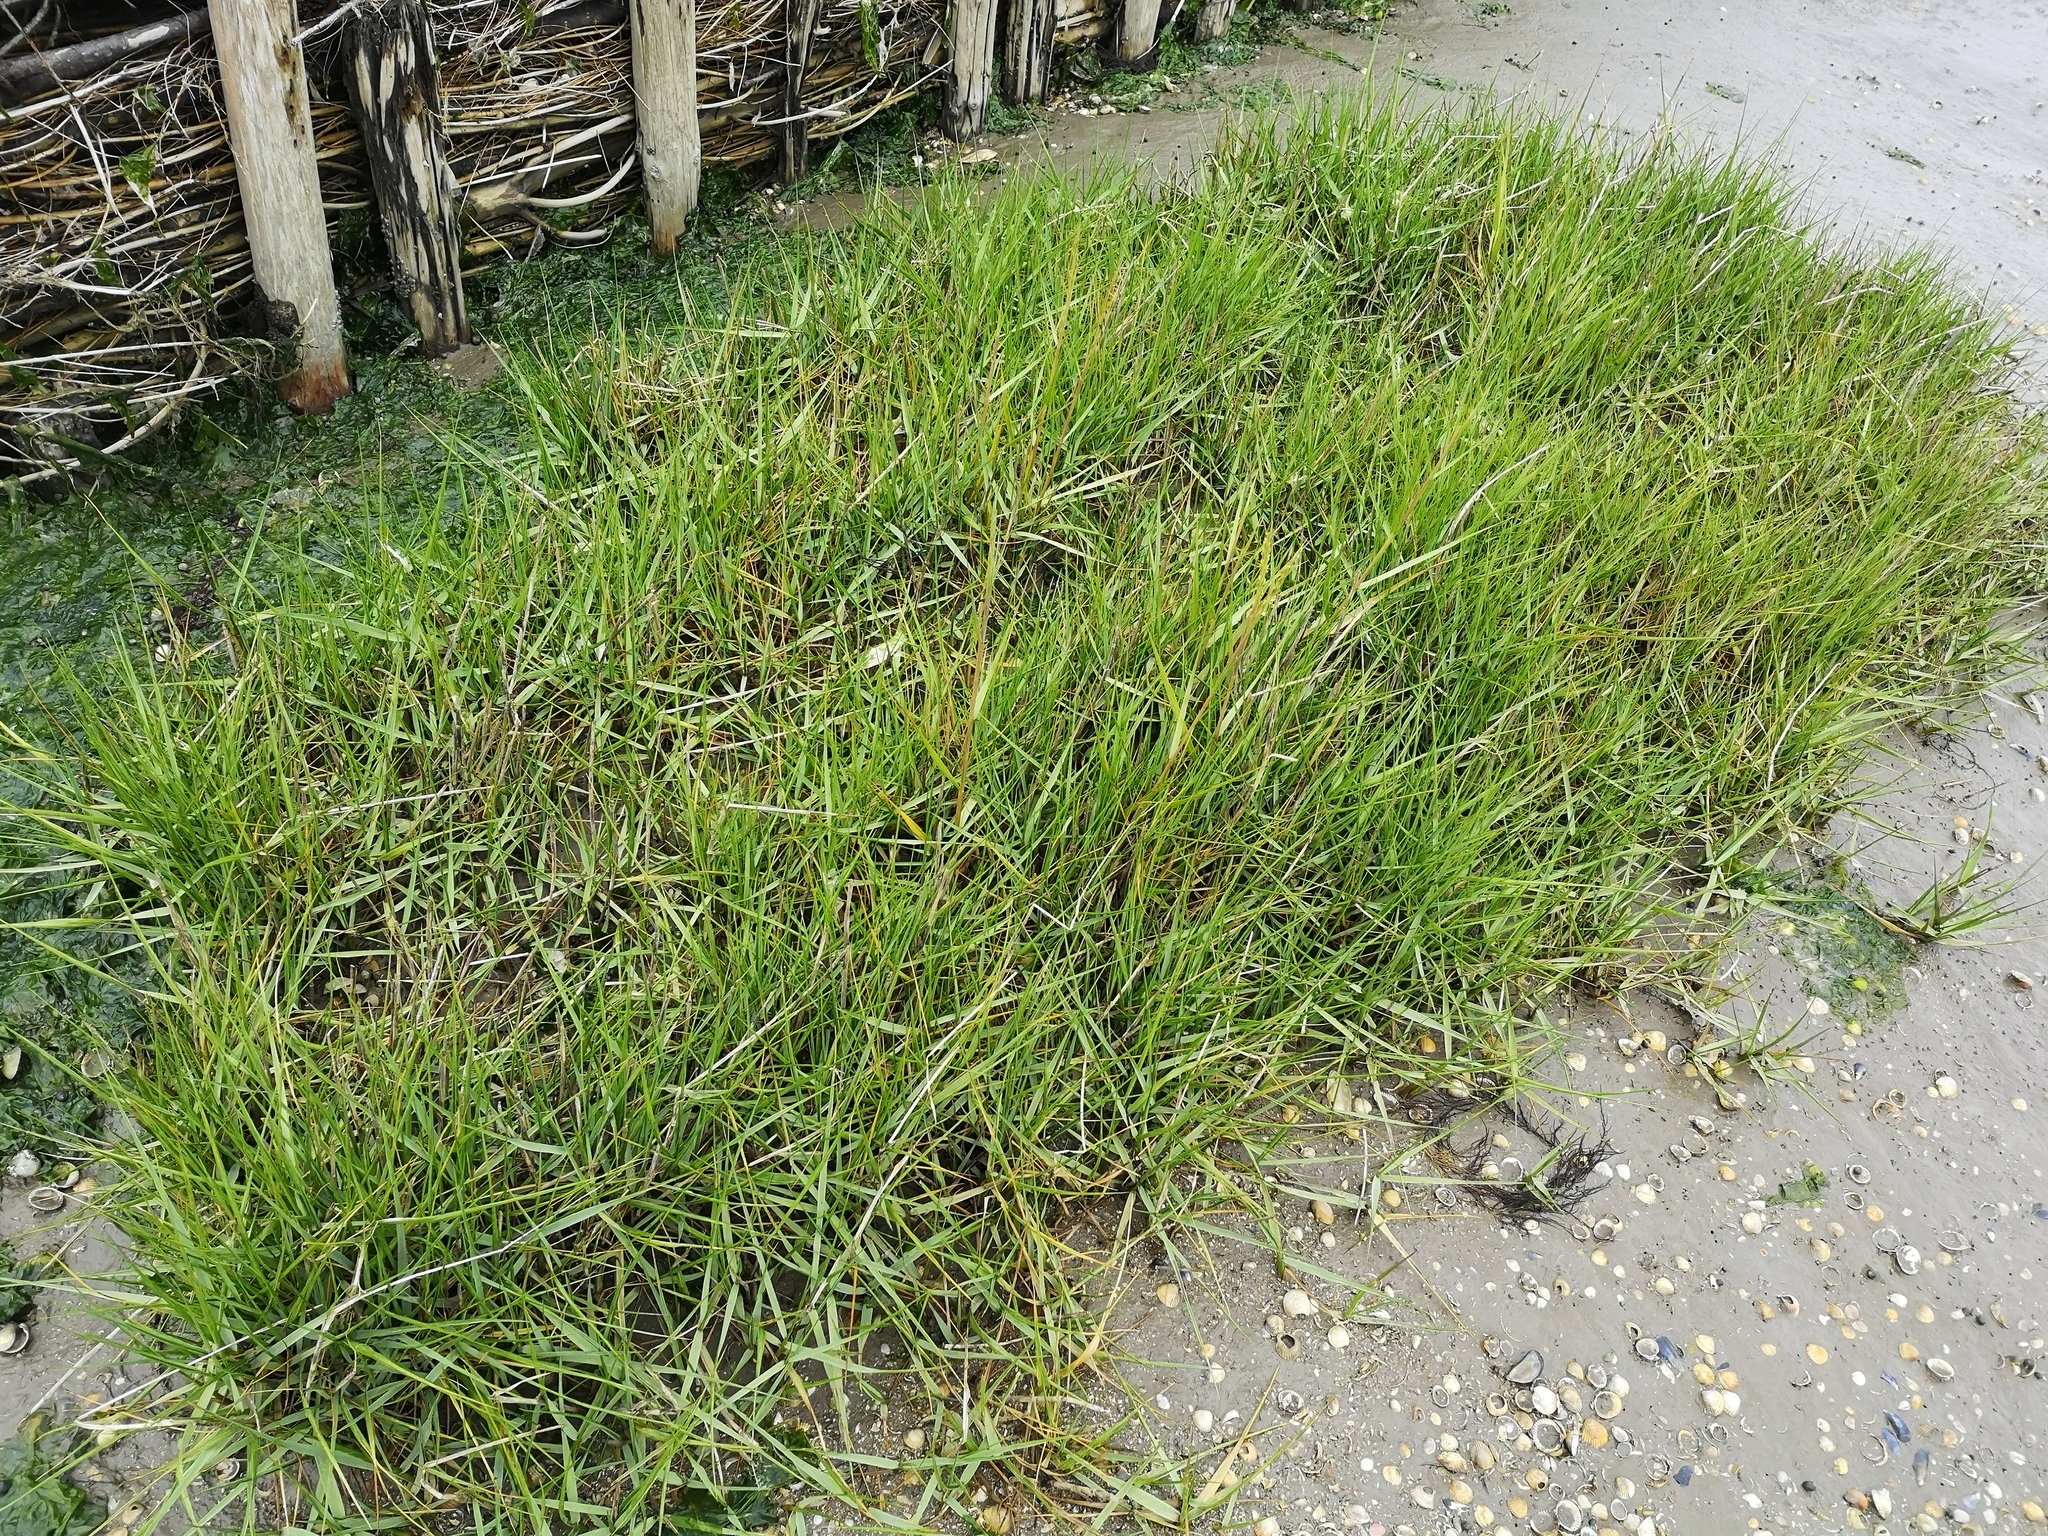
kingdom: Plantae
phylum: Tracheophyta
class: Liliopsida
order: Poales
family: Poaceae
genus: Sporobolus
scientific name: Sporobolus anglicus
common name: English cordgrass
